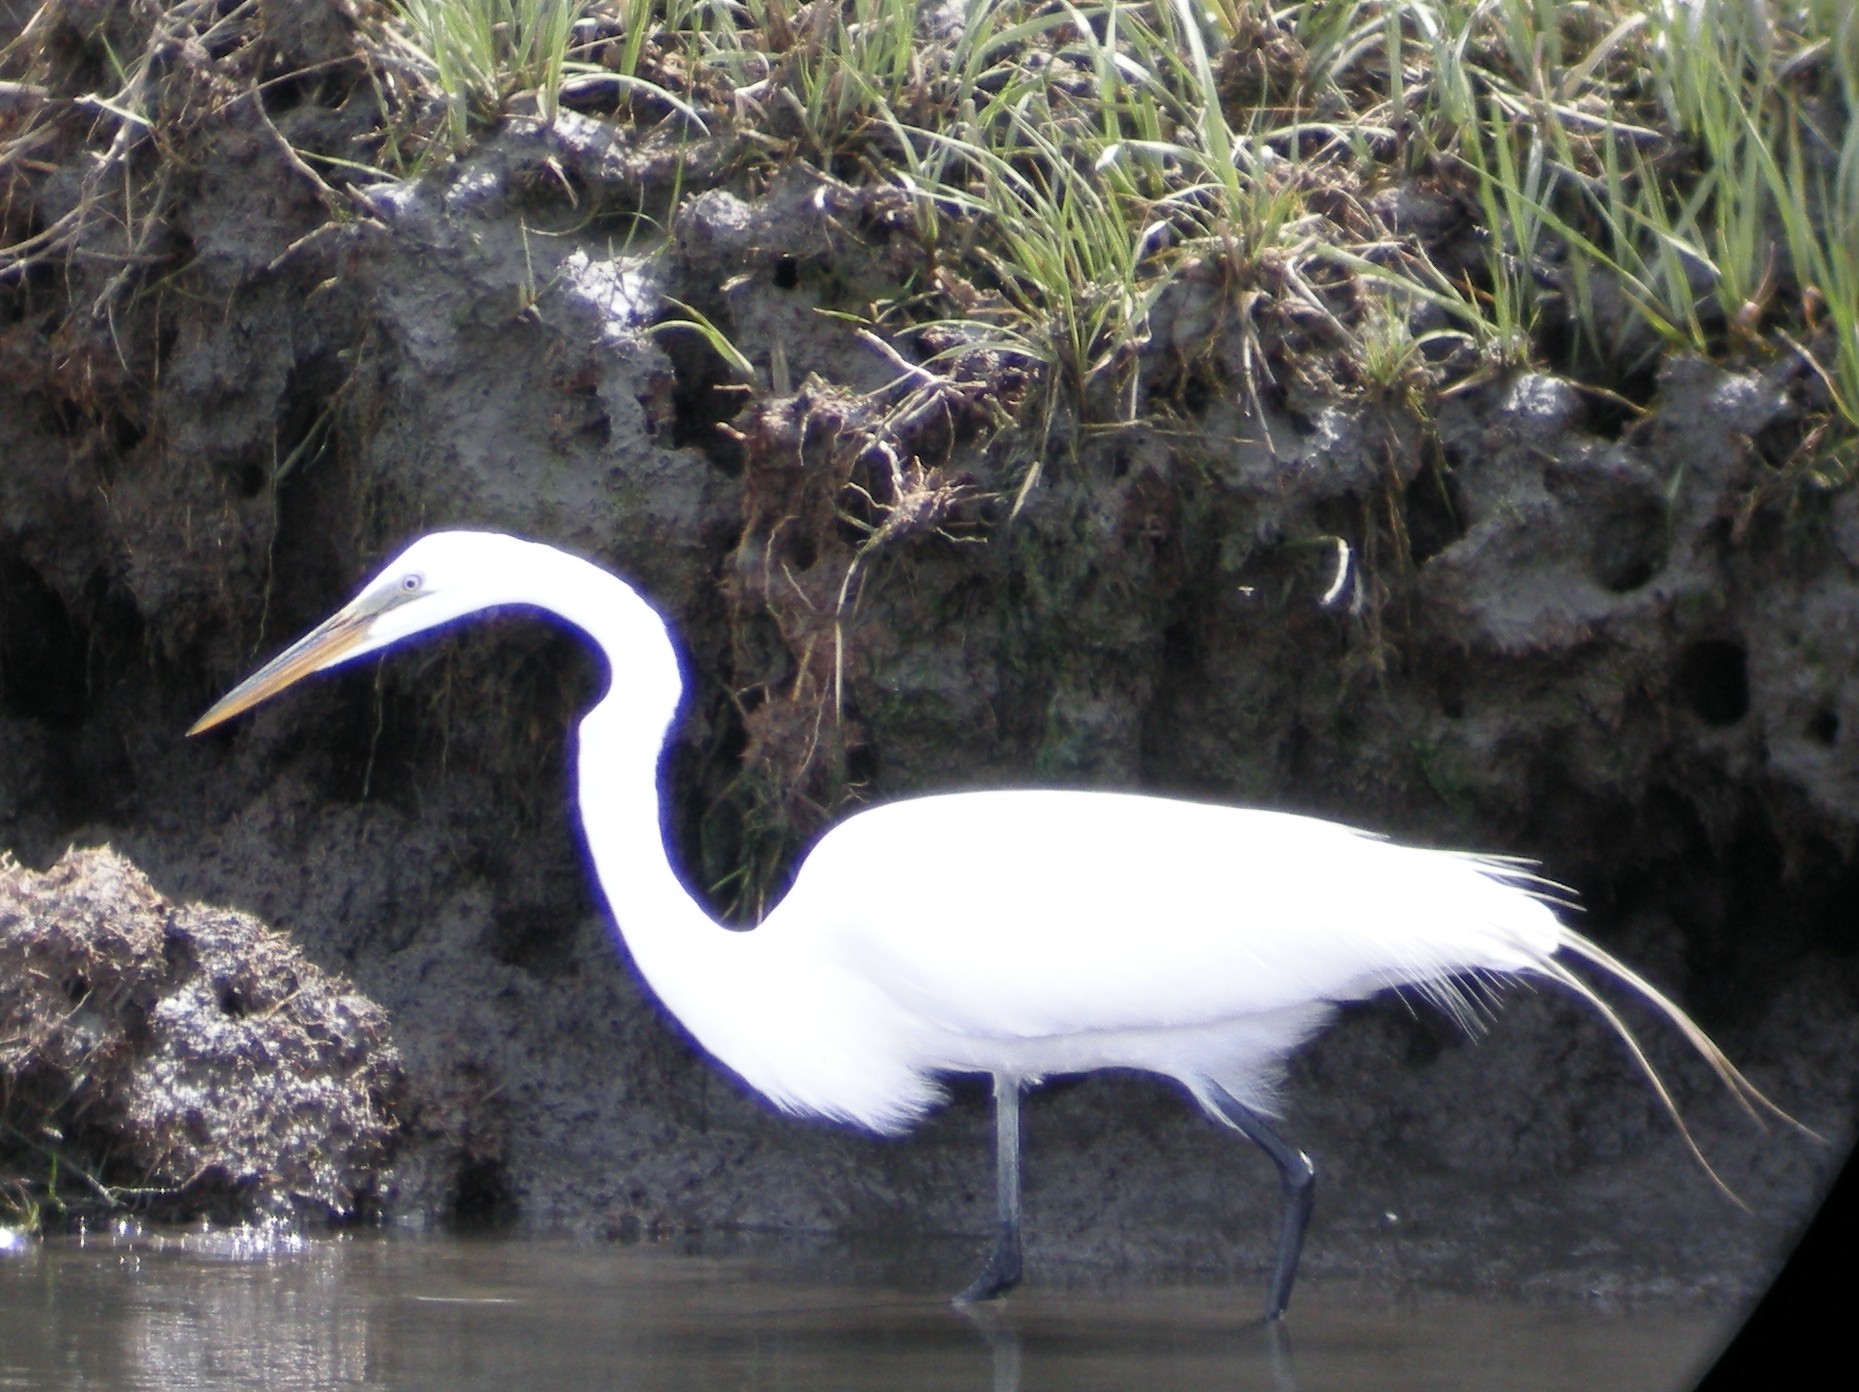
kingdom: Animalia
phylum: Chordata
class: Aves
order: Pelecaniformes
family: Ardeidae
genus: Ardea
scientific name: Ardea alba
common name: Great egret
